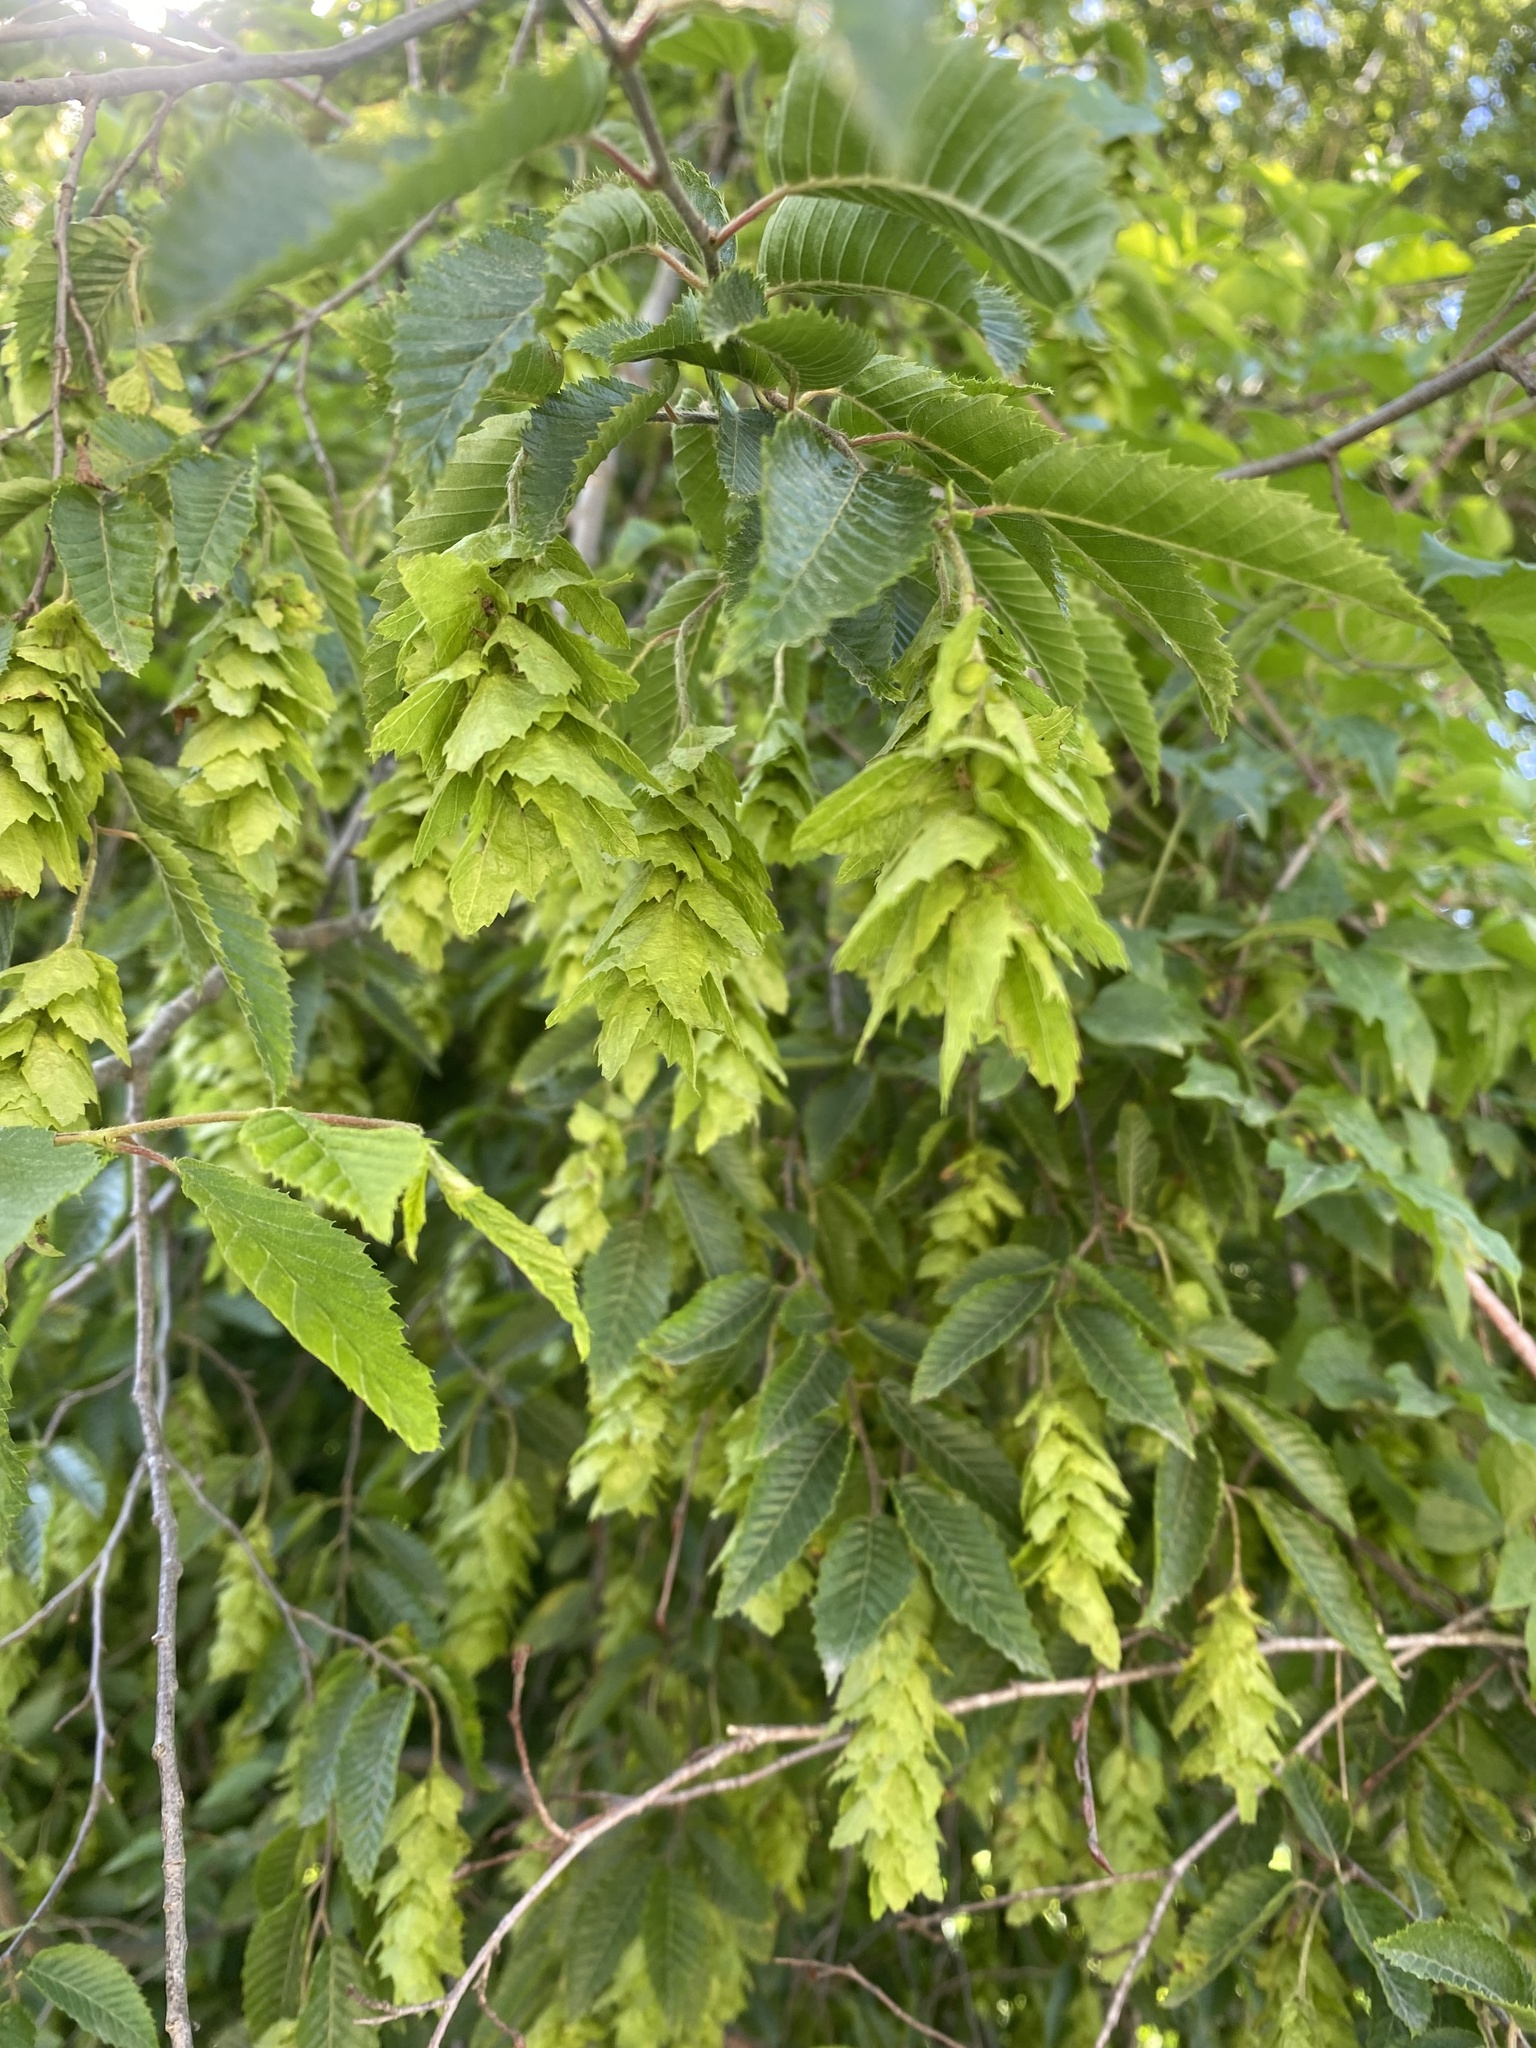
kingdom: Plantae
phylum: Tracheophyta
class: Magnoliopsida
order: Fagales
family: Betulaceae
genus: Carpinus
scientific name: Carpinus orientalis
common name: Eastern hornbeam
